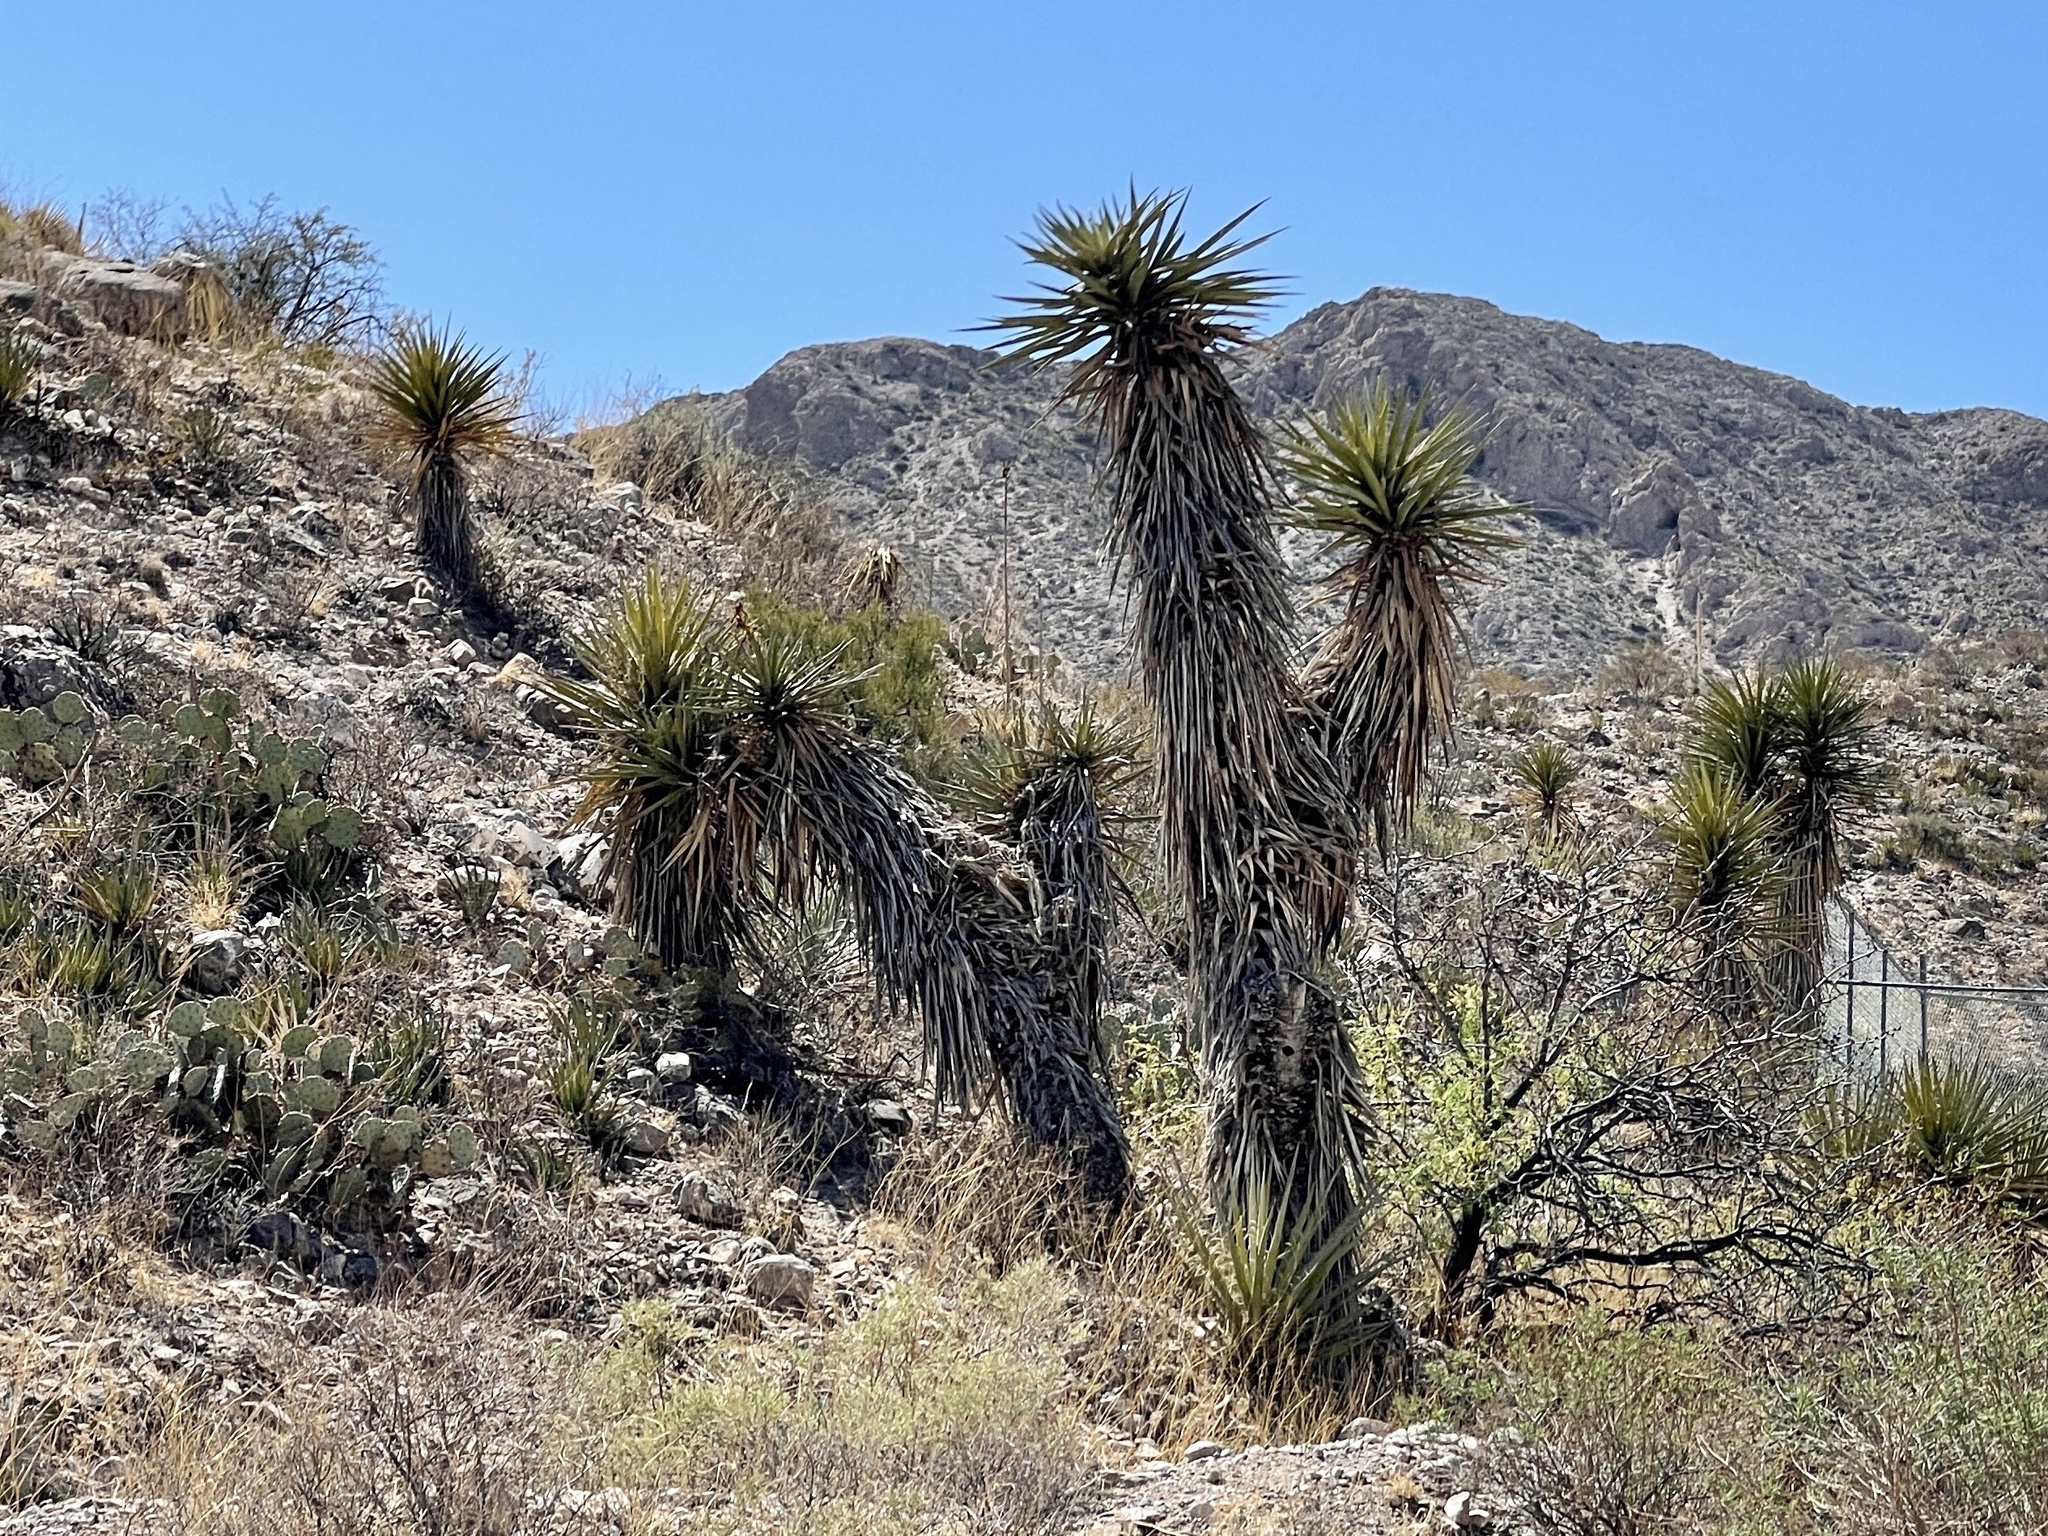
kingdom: Plantae
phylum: Tracheophyta
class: Liliopsida
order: Asparagales
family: Asparagaceae
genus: Yucca
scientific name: Yucca treculiana
